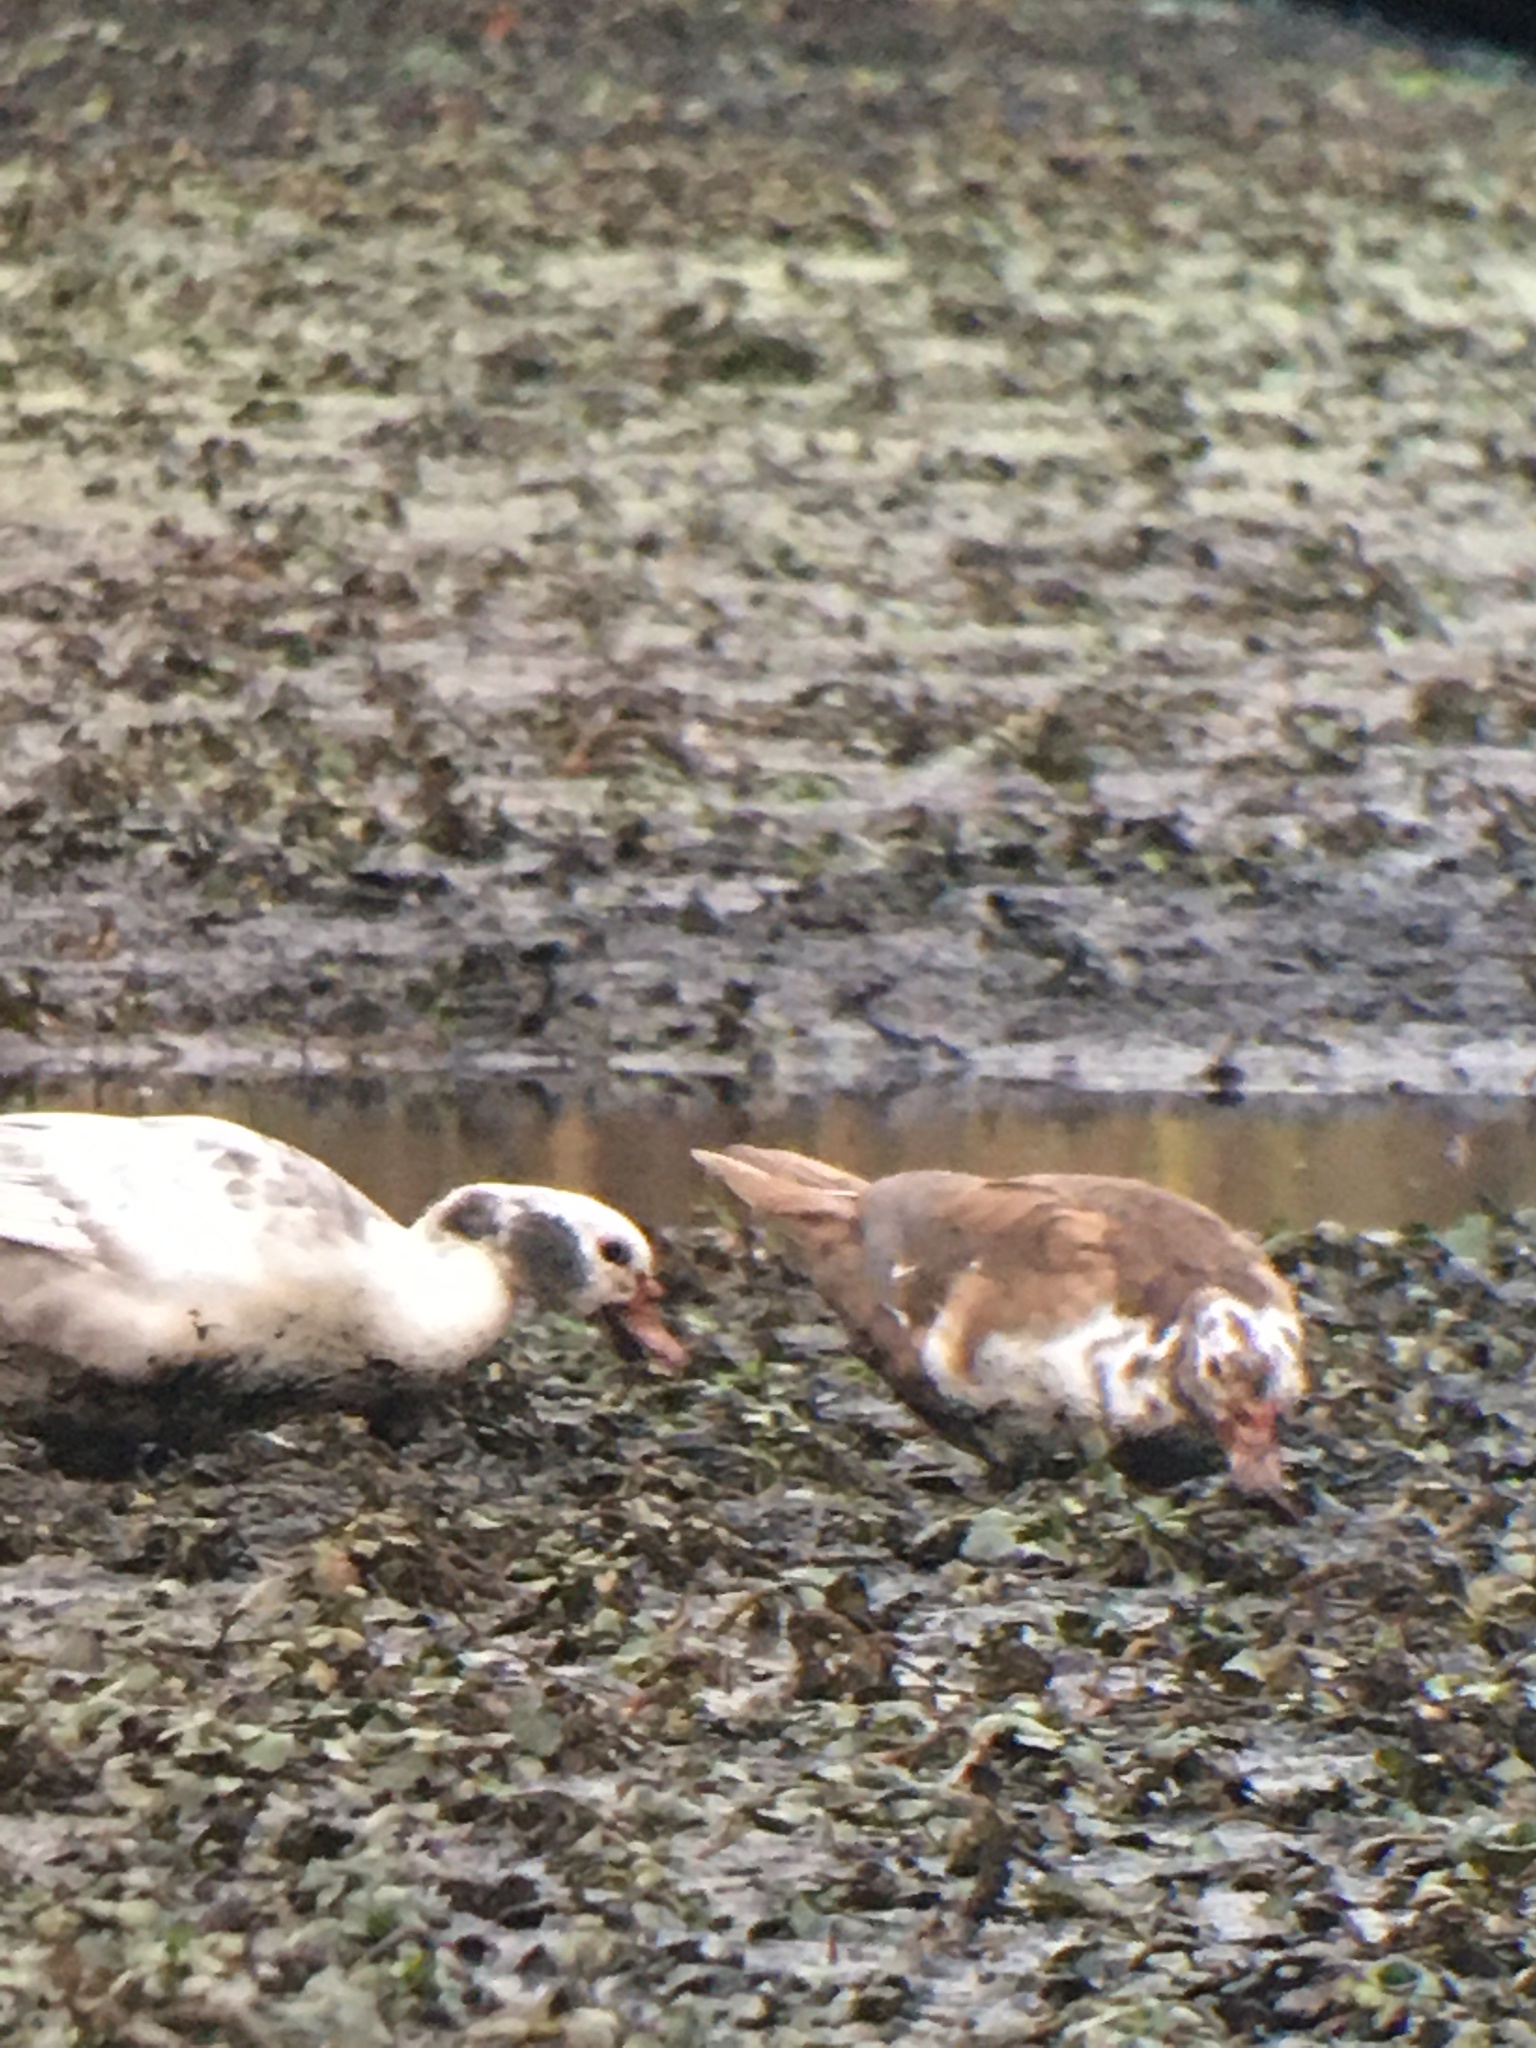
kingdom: Animalia
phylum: Chordata
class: Aves
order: Anseriformes
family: Anatidae
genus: Cairina
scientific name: Cairina moschata
